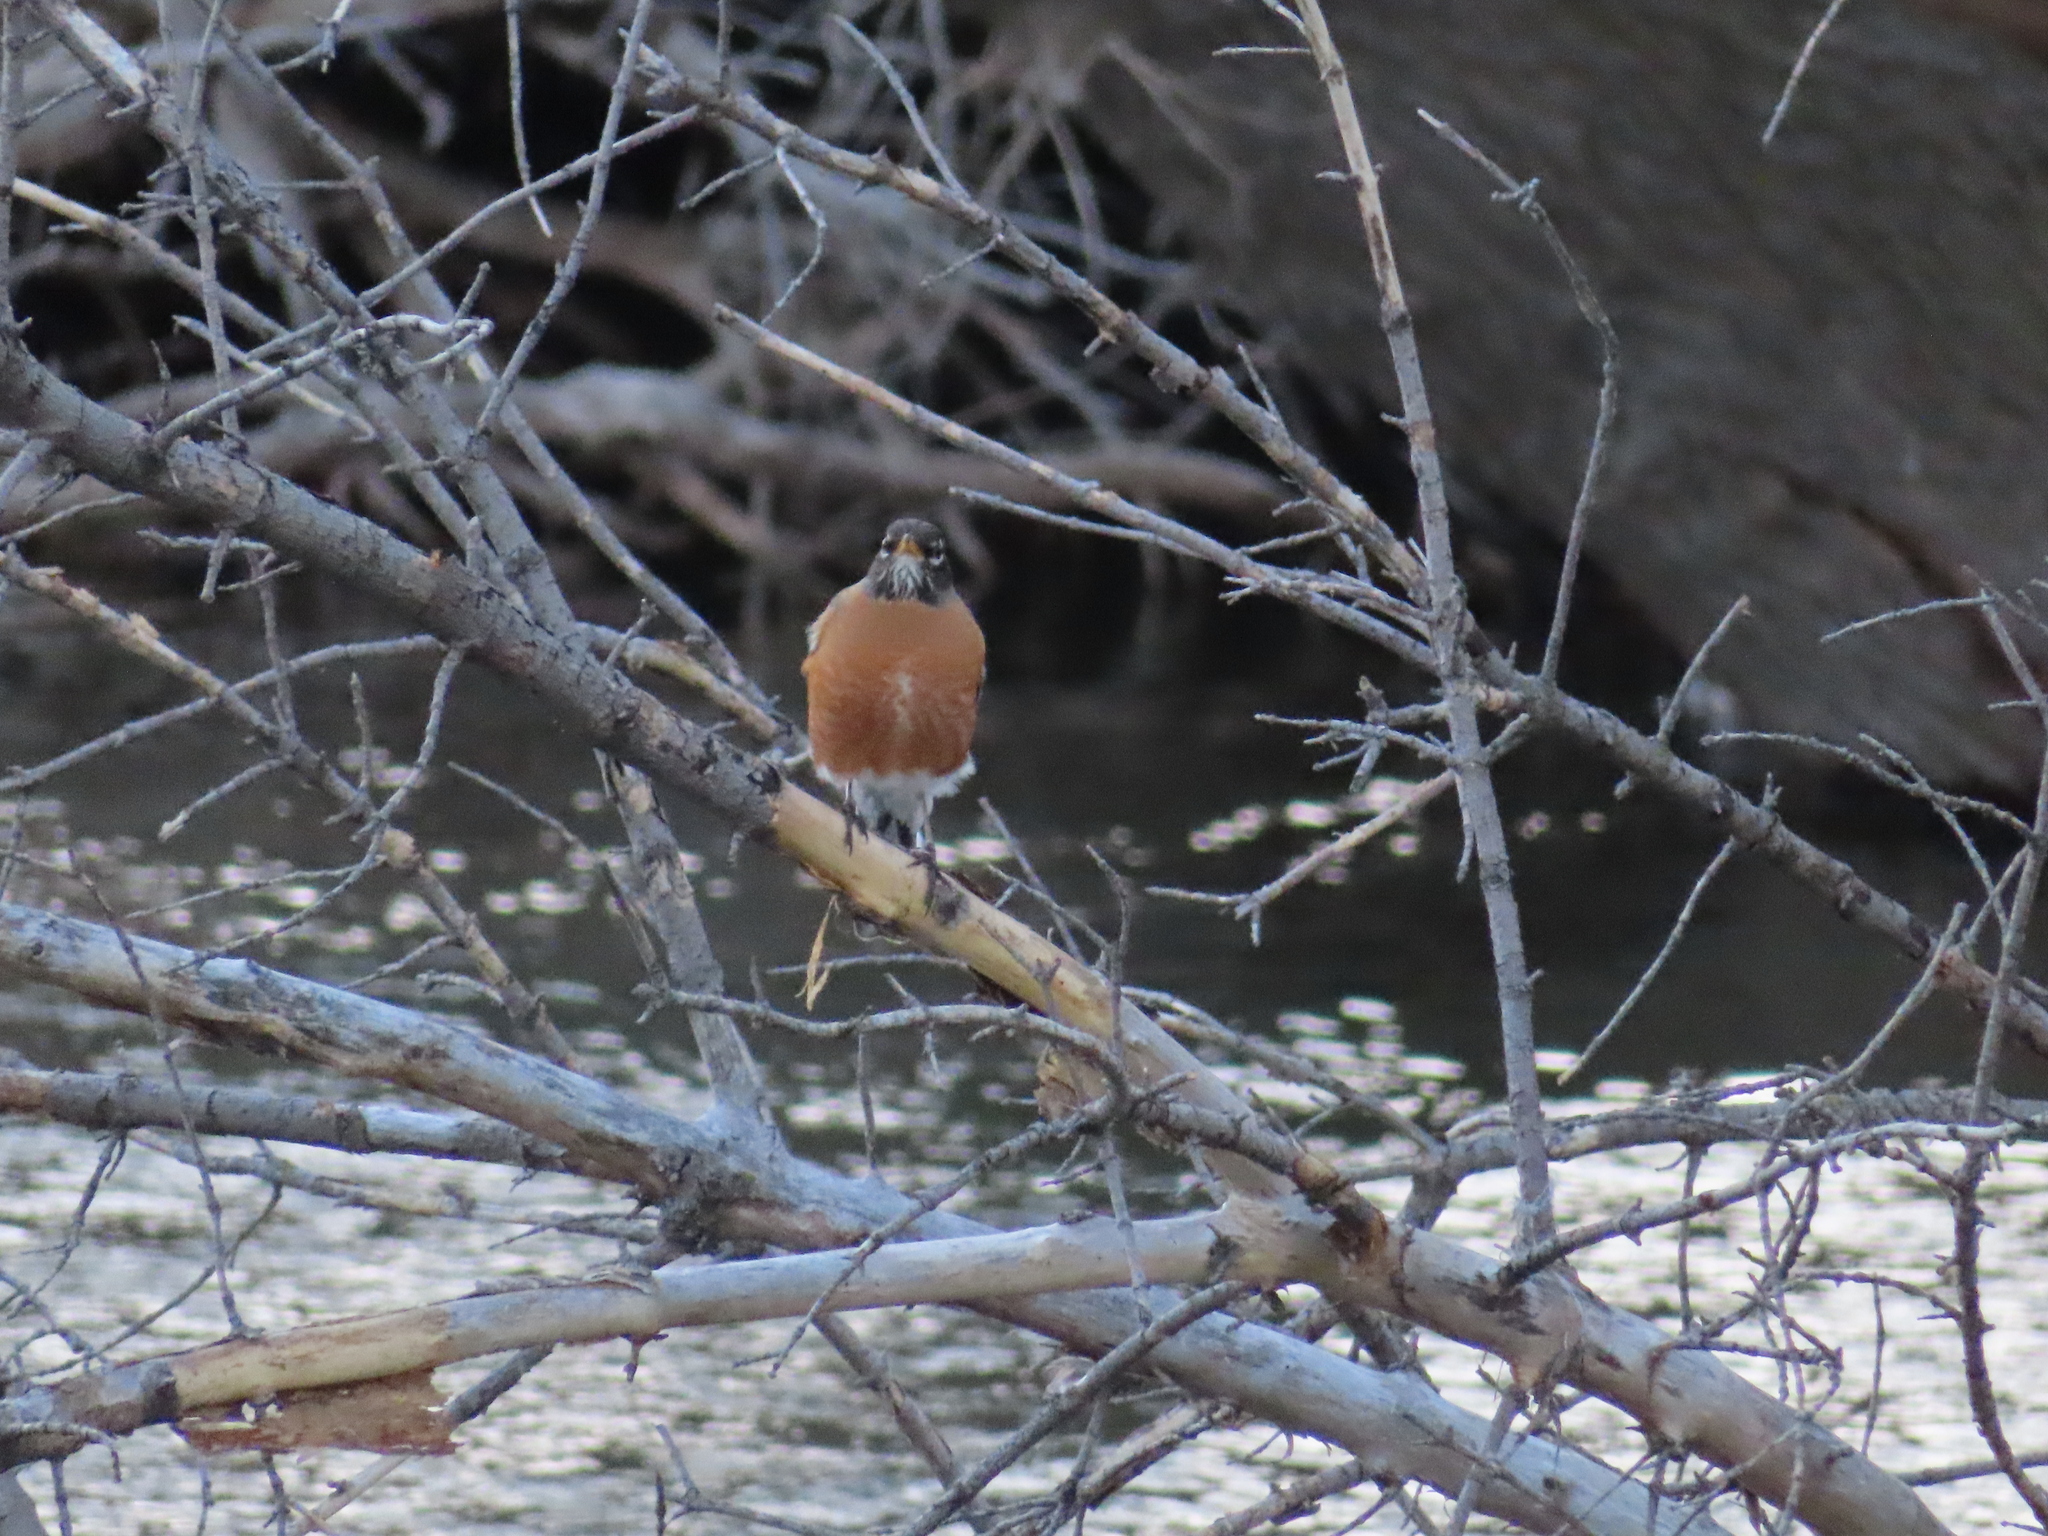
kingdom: Animalia
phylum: Chordata
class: Aves
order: Passeriformes
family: Turdidae
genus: Turdus
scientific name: Turdus migratorius
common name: American robin
